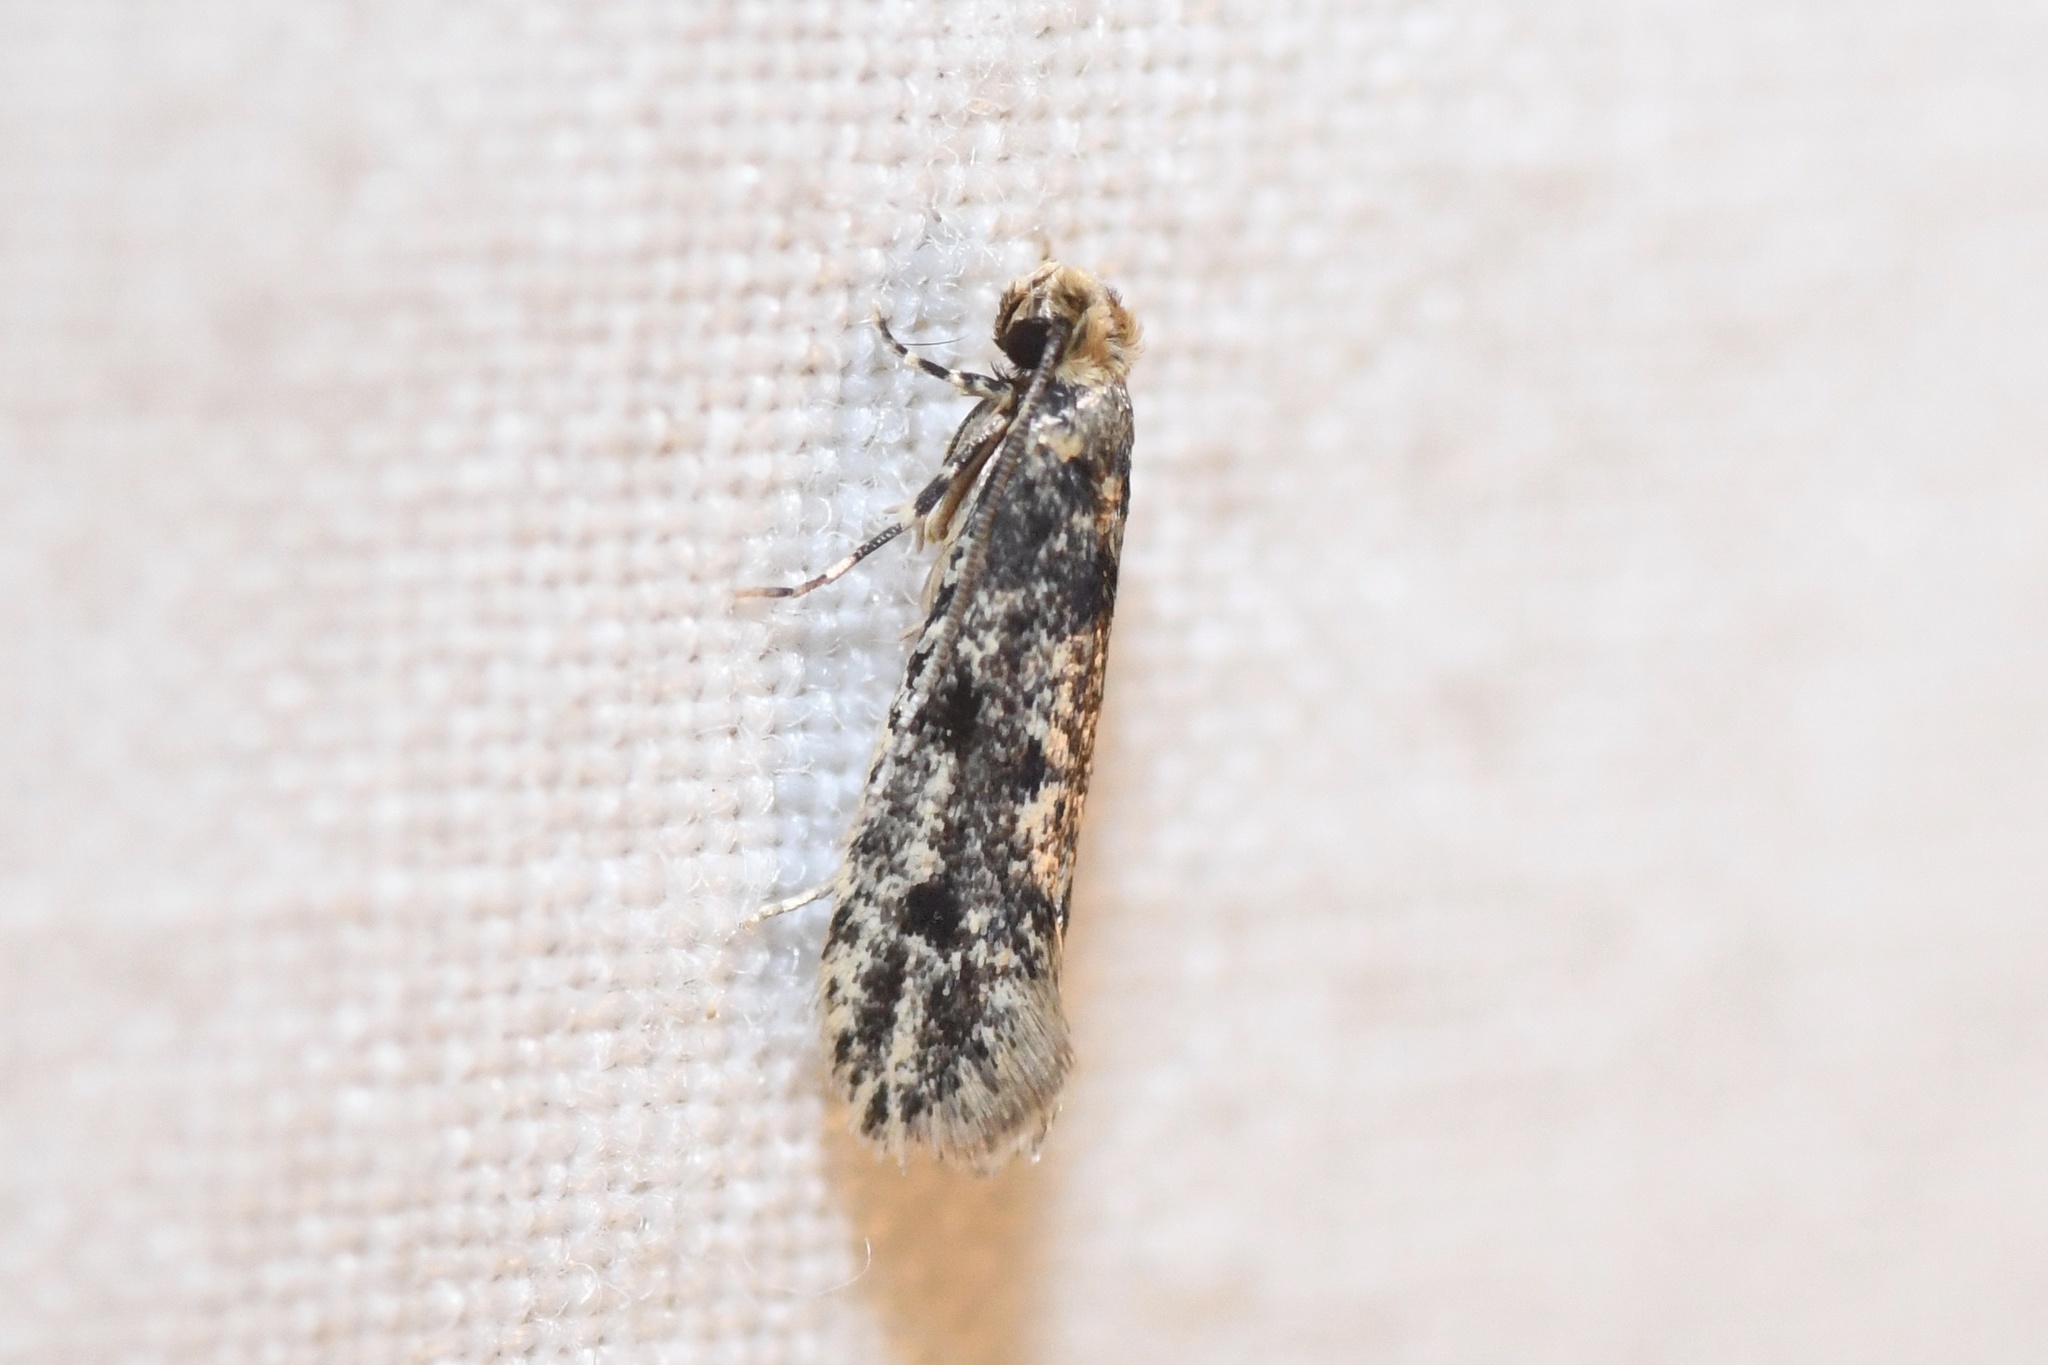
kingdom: Animalia
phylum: Arthropoda
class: Insecta
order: Lepidoptera
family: Tineidae
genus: Niditinea
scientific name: Niditinea fuscella
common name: Brown-dotted clothes moth
